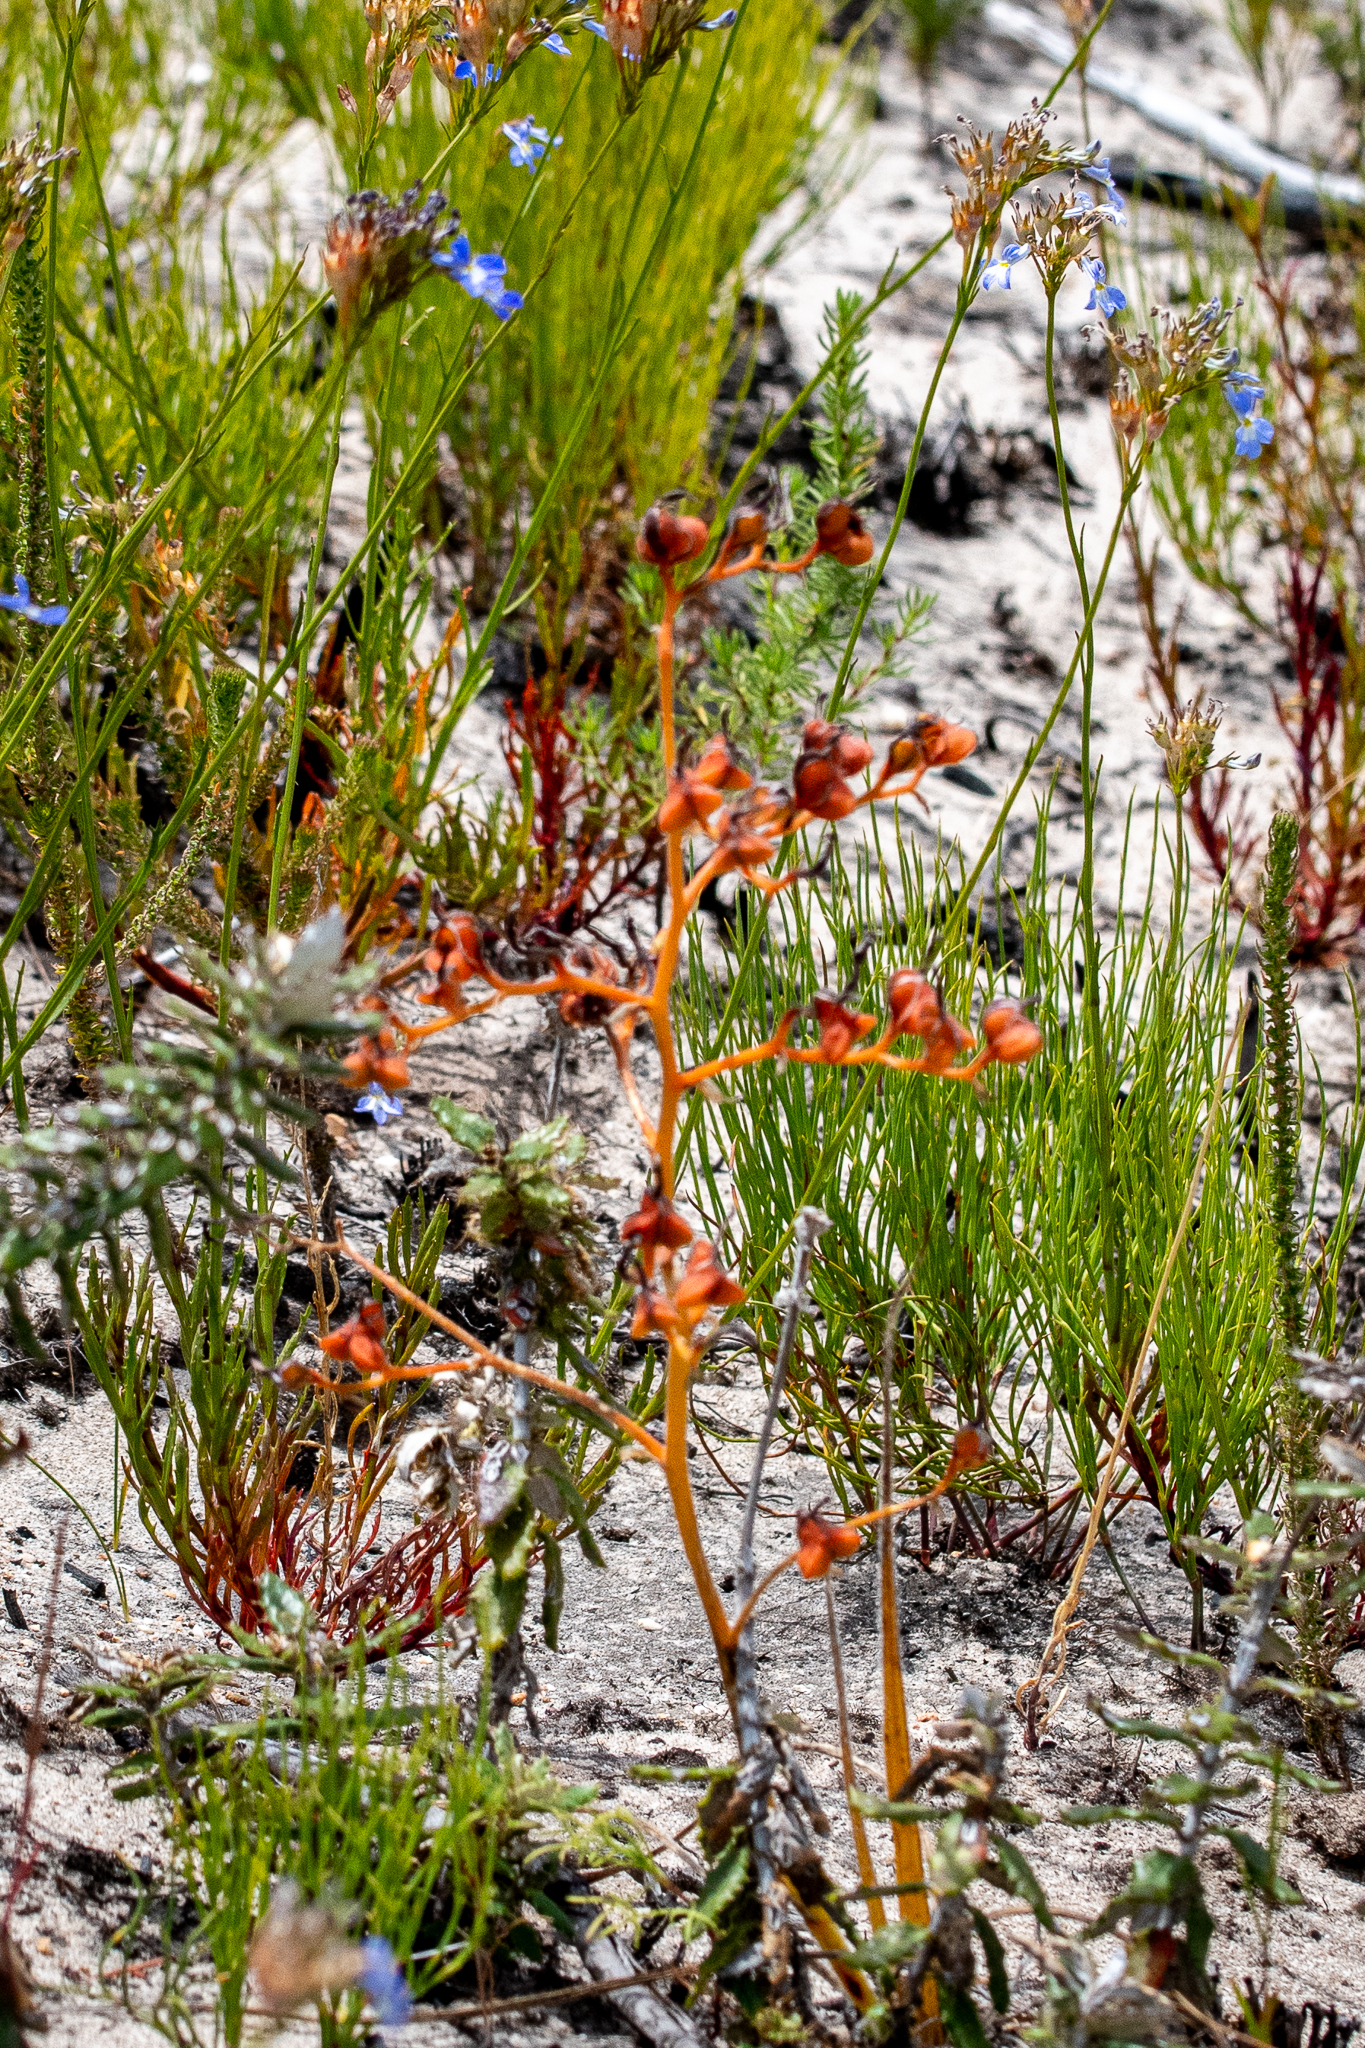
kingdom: Plantae
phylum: Tracheophyta
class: Liliopsida
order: Commelinales
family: Haemodoraceae
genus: Wachendorfia
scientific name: Wachendorfia paniculata
